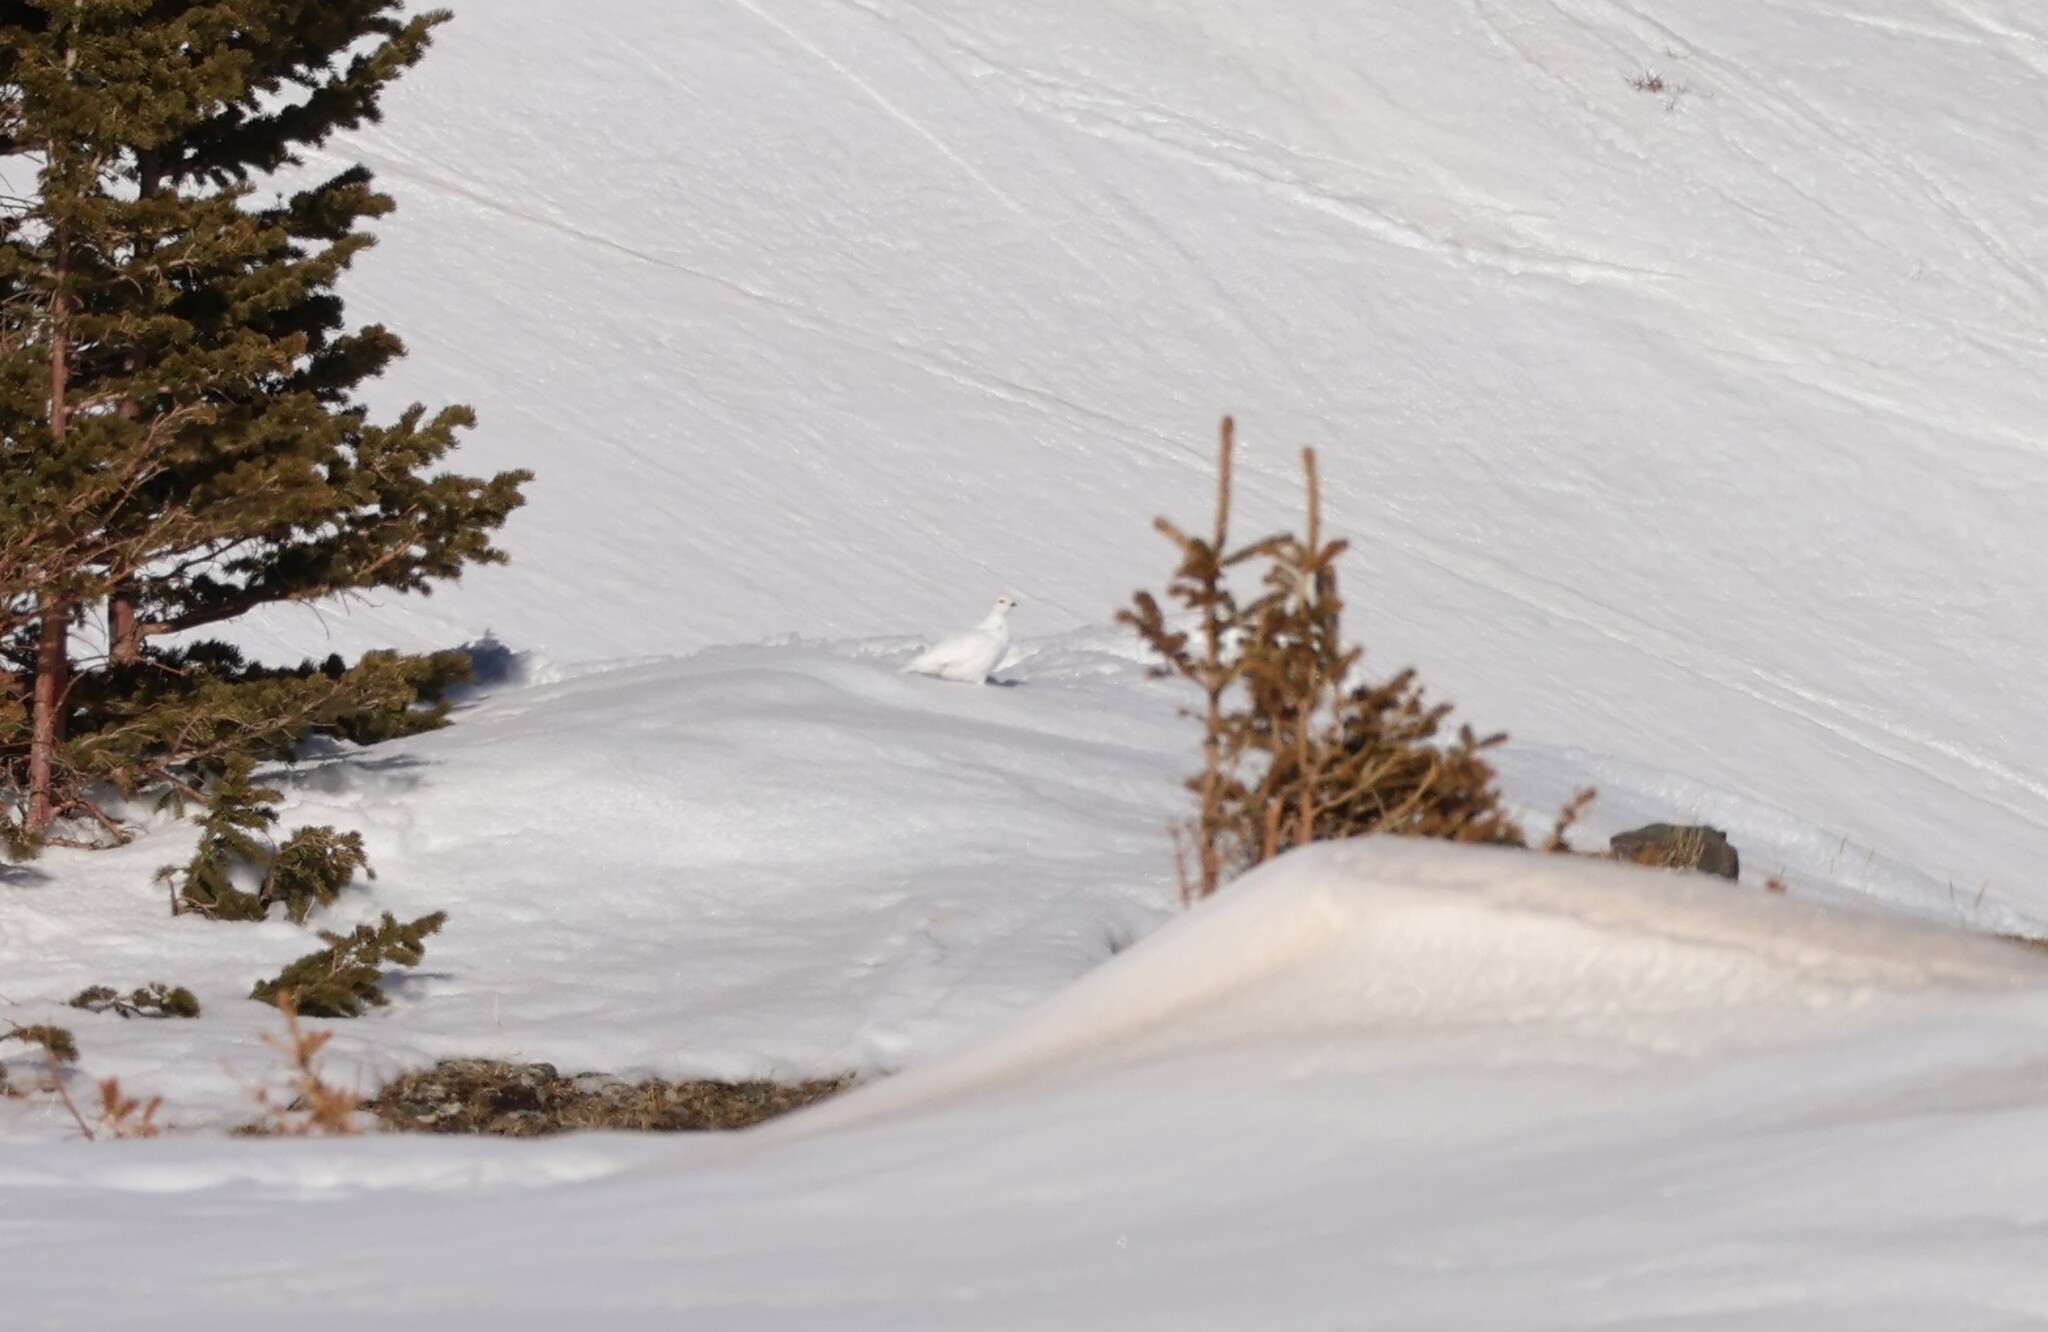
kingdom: Animalia
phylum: Chordata
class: Aves
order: Galliformes
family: Phasianidae
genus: Lagopus
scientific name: Lagopus leucura
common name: White-tailed ptarmigan
